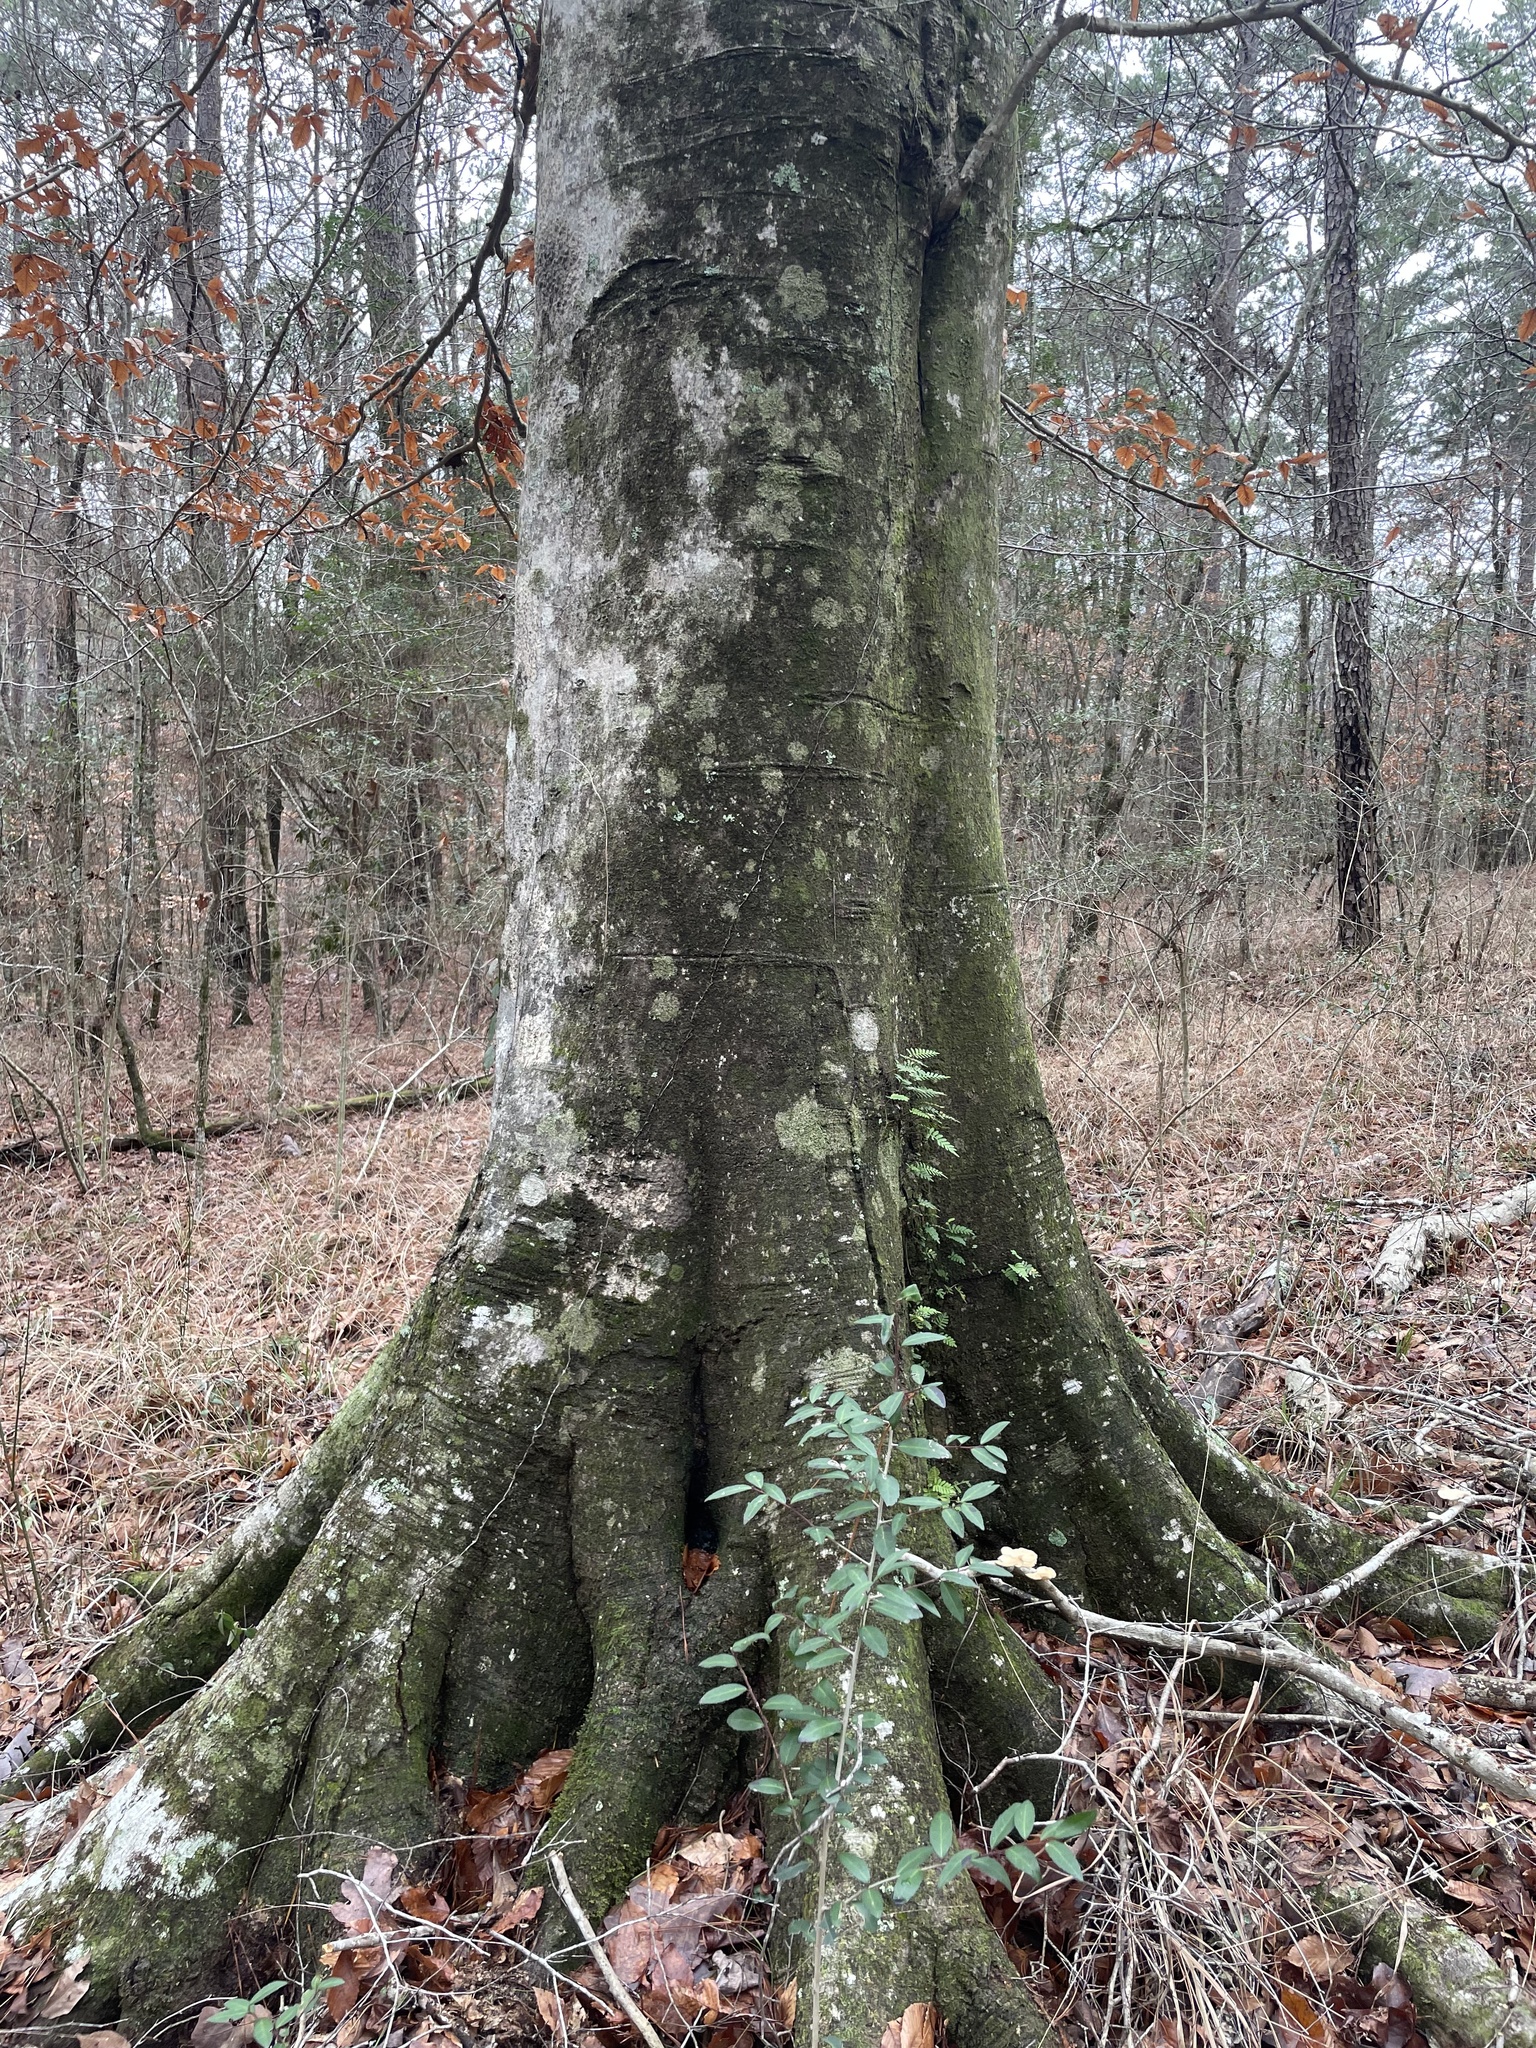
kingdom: Plantae
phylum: Tracheophyta
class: Magnoliopsida
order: Fagales
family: Fagaceae
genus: Fagus
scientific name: Fagus grandifolia
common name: American beech
